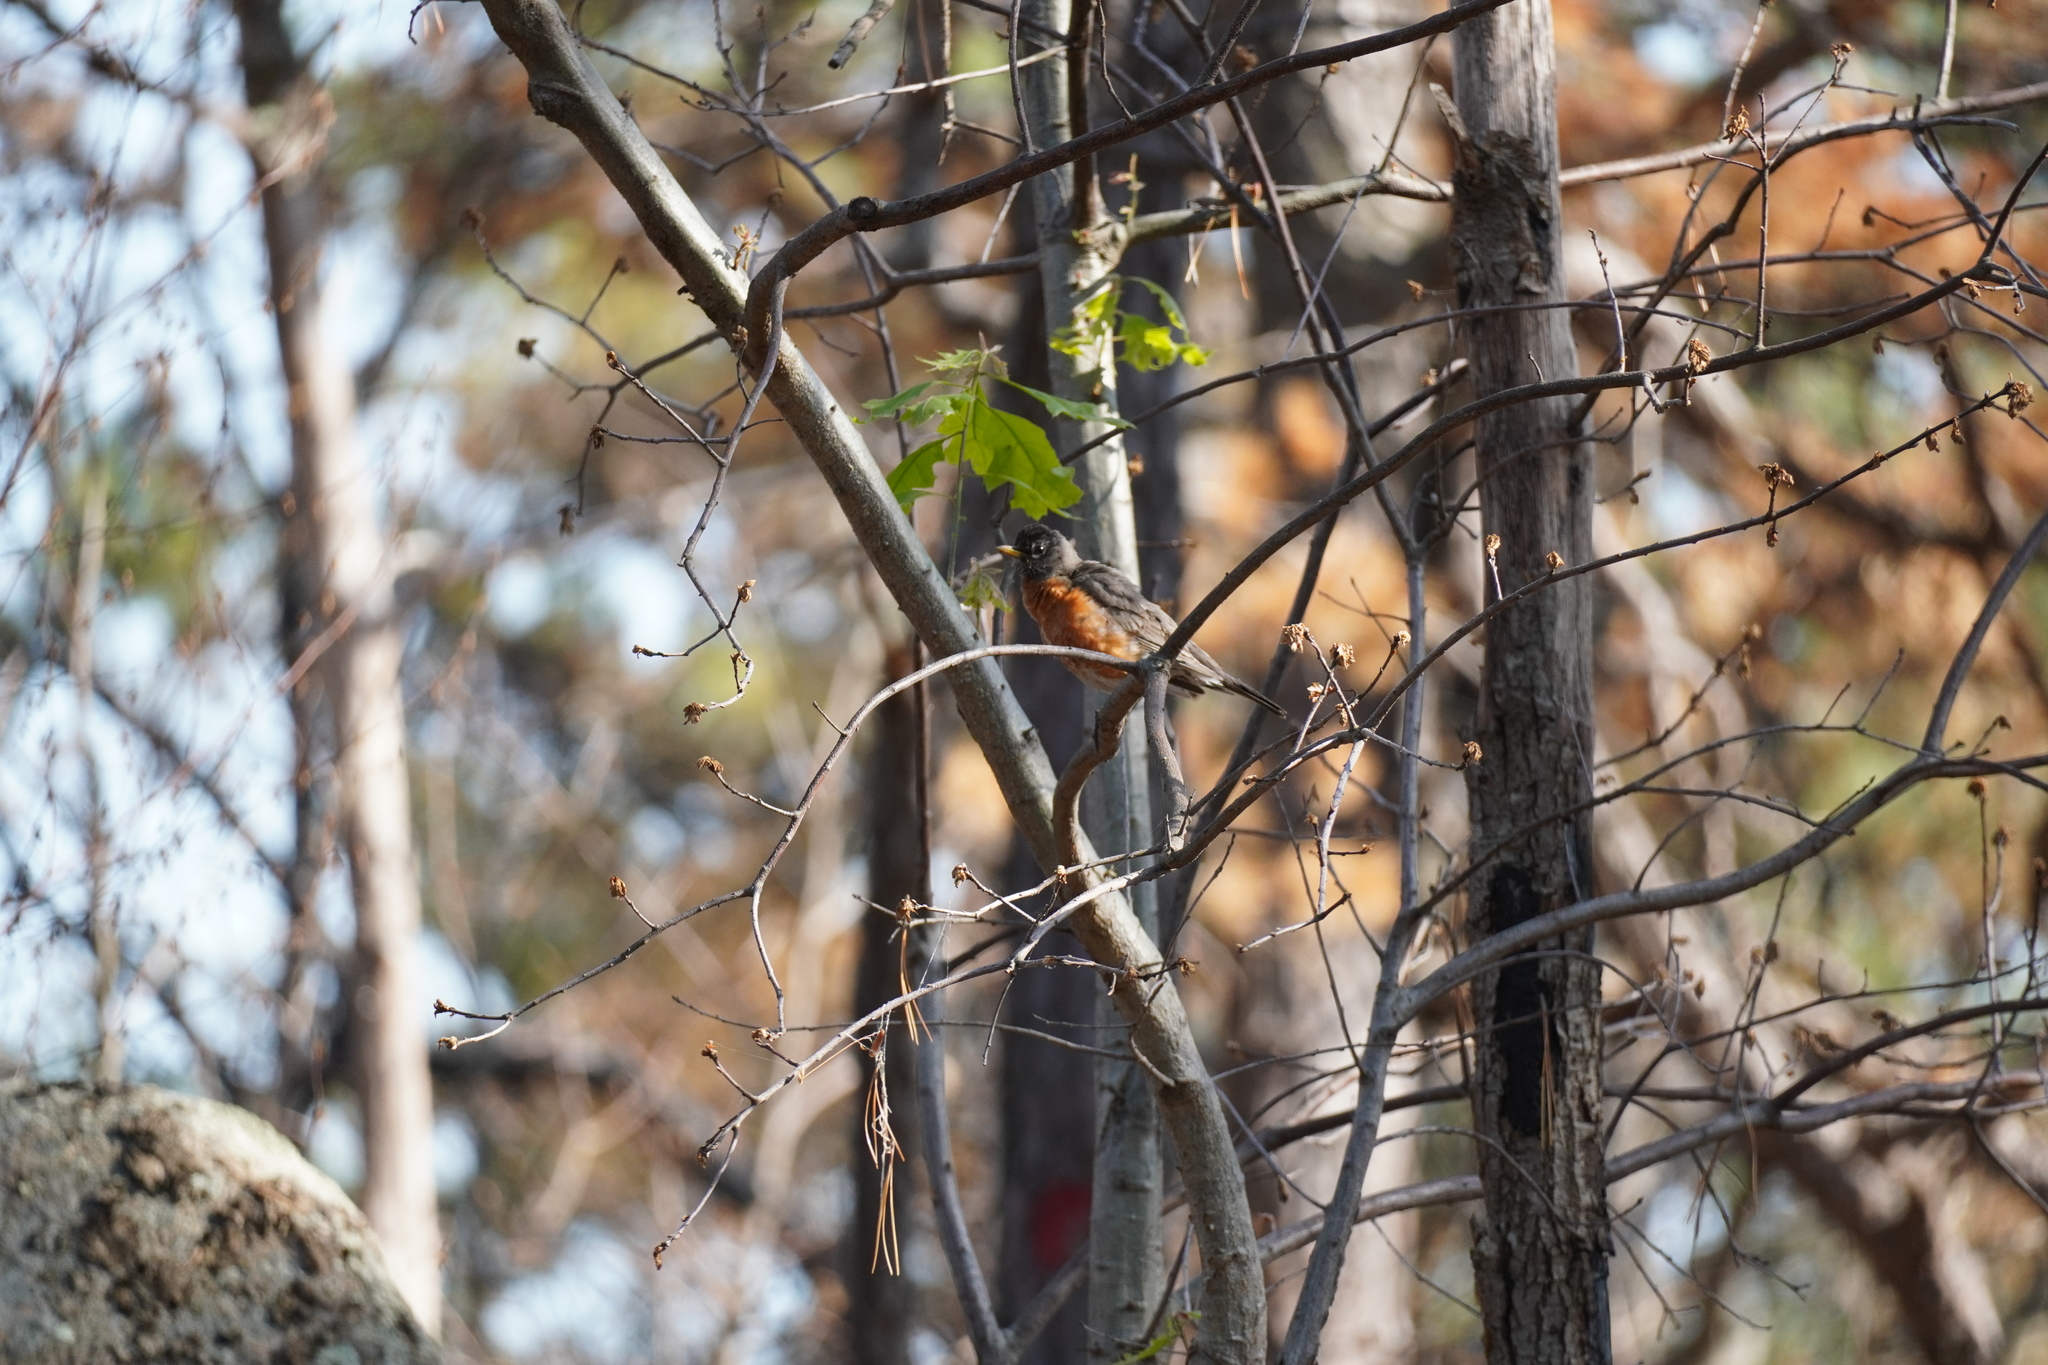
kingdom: Animalia
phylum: Chordata
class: Aves
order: Passeriformes
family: Turdidae
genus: Turdus
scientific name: Turdus migratorius
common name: American robin
